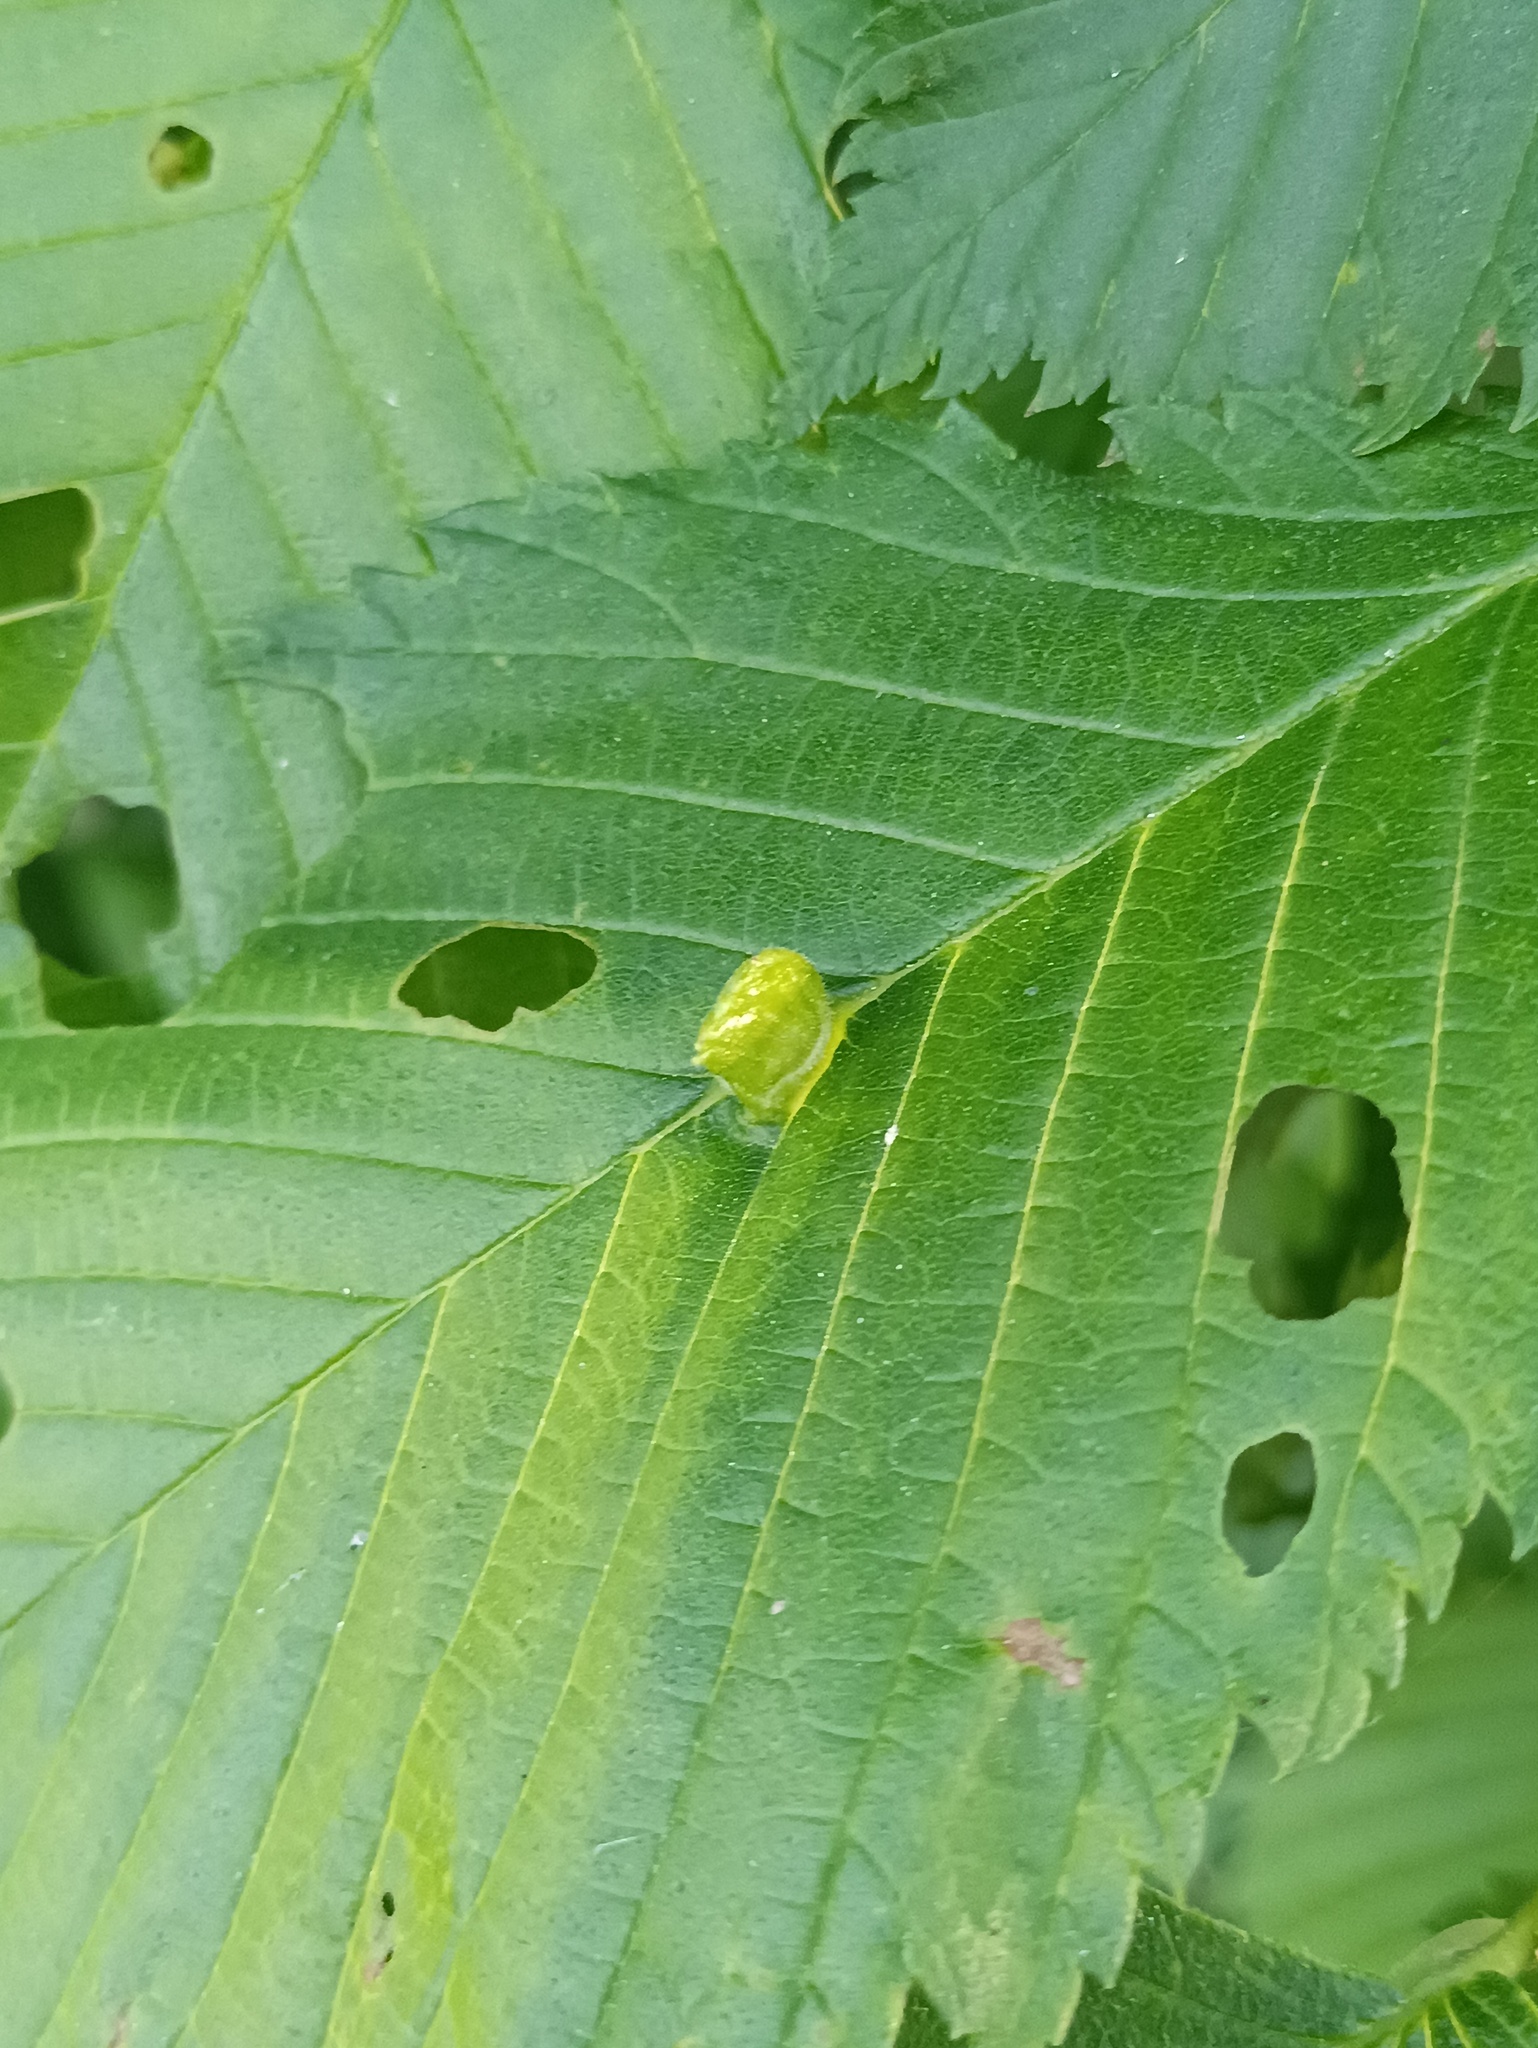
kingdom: Plantae
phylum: Tracheophyta
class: Magnoliopsida
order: Rosales
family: Ulmaceae
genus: Ulmus
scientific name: Ulmus laevis
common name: European white-elm
